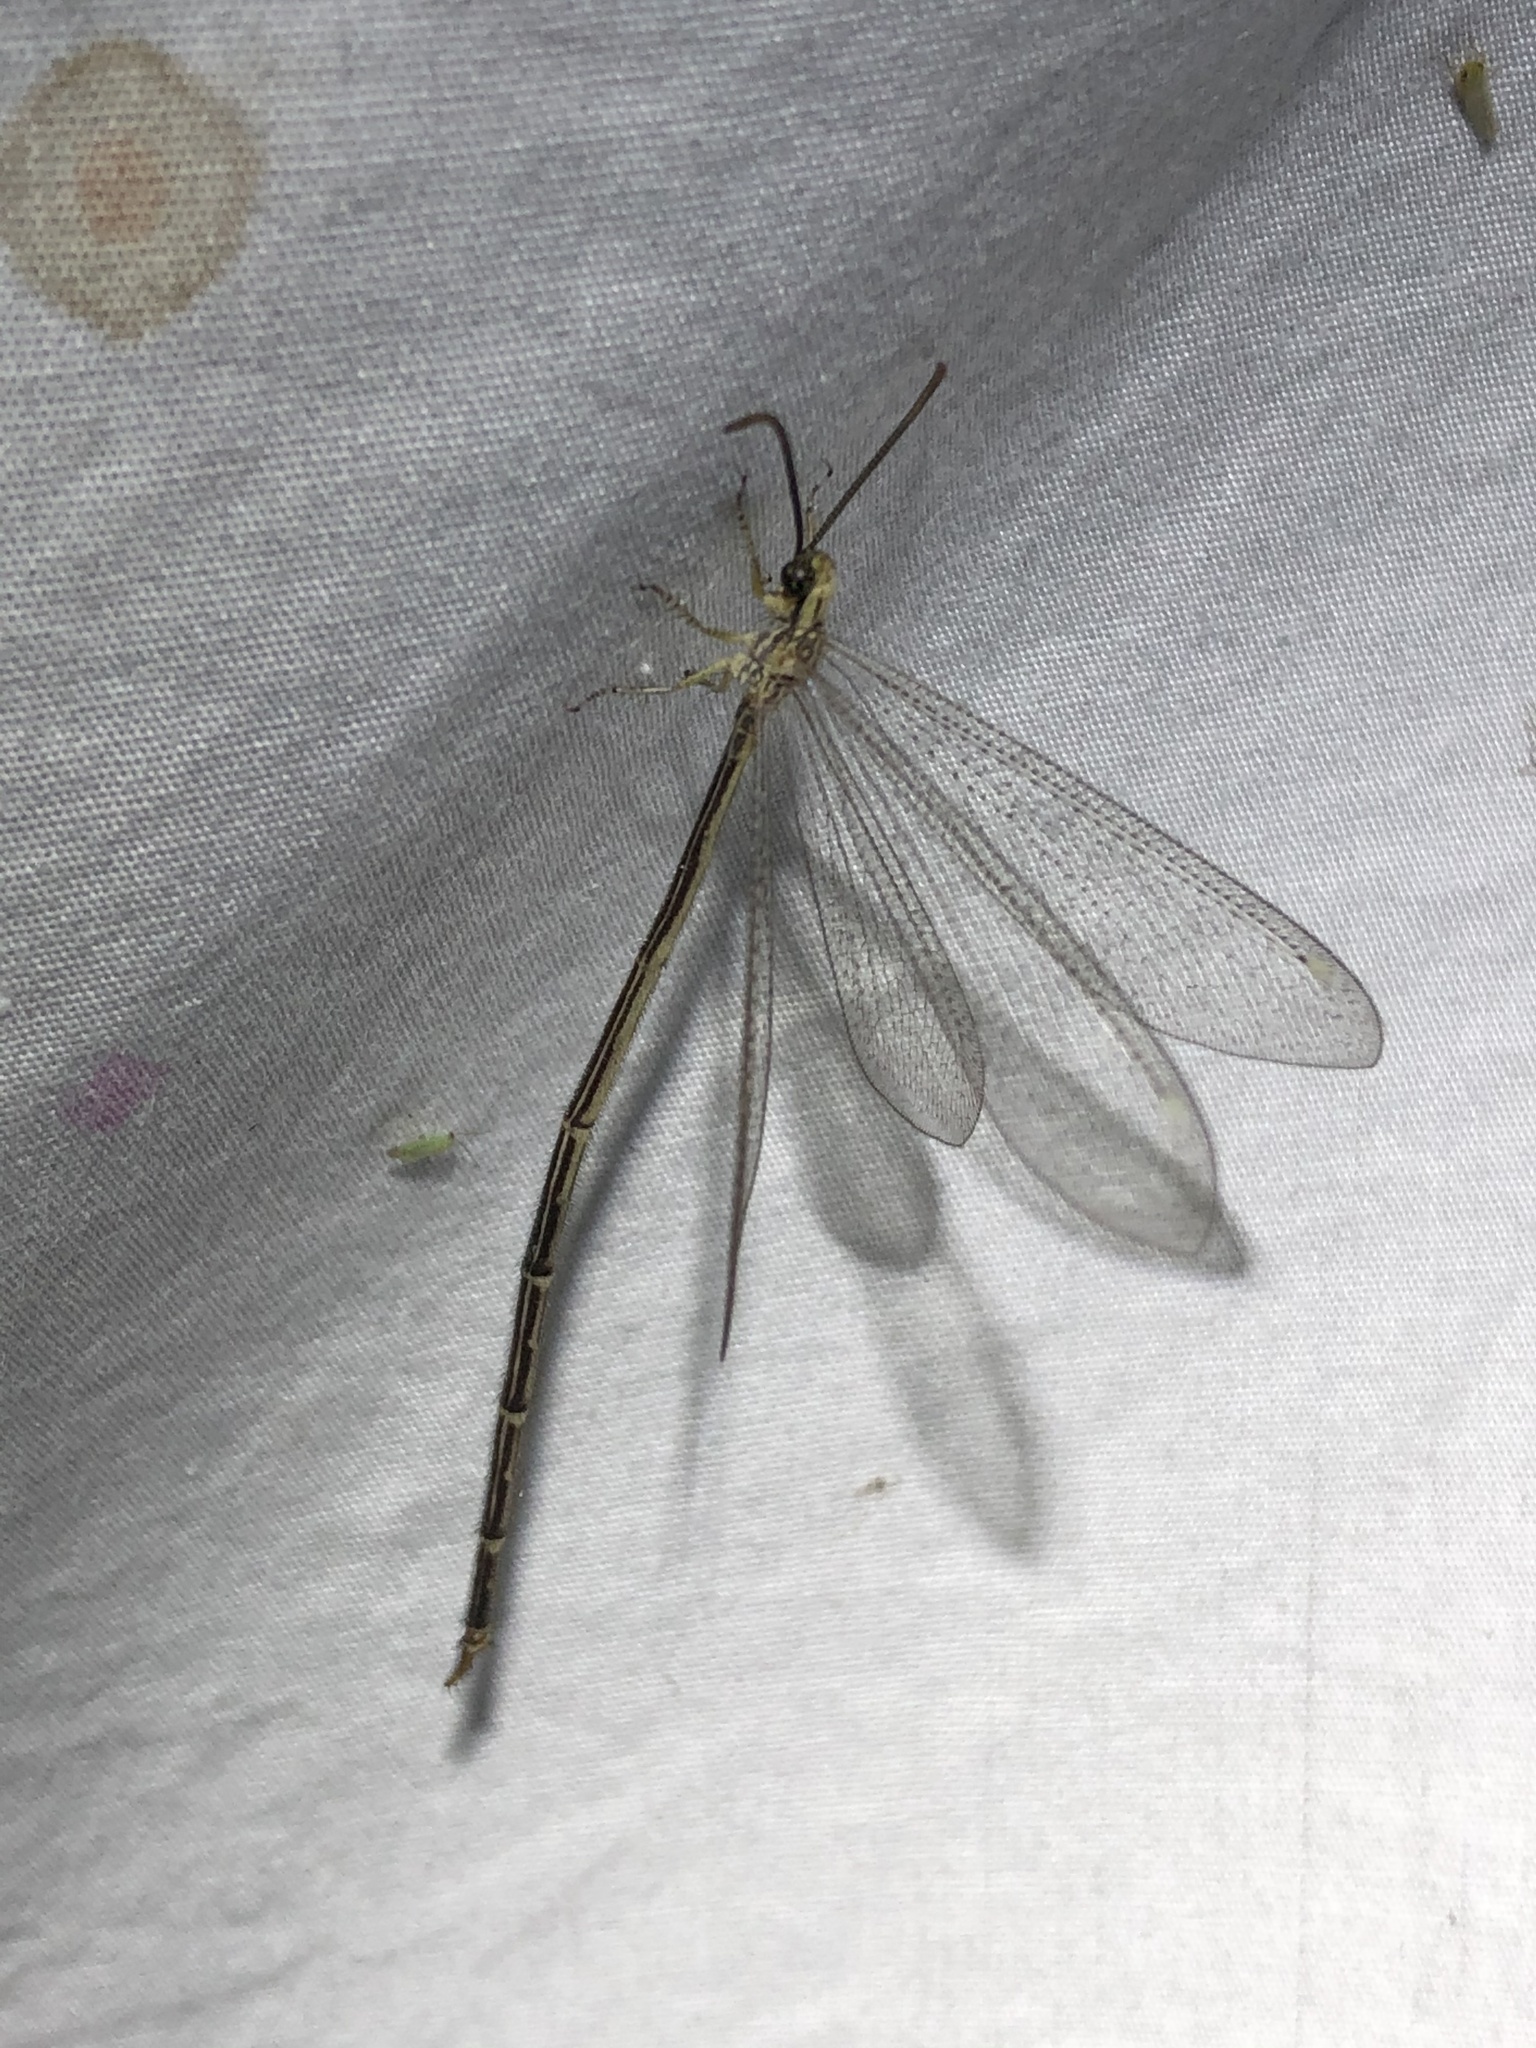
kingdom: Animalia
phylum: Arthropoda
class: Insecta
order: Neuroptera
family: Myrmeleontidae
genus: Brachynemurus
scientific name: Brachynemurus abdominalis
